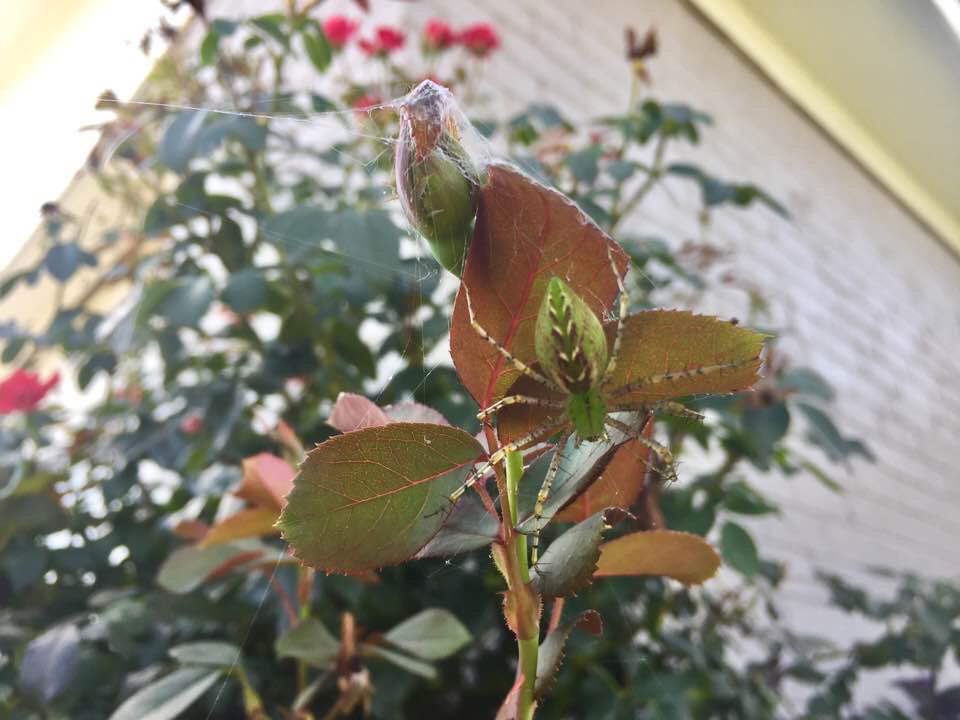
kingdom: Animalia
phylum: Arthropoda
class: Arachnida
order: Araneae
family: Oxyopidae
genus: Peucetia
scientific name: Peucetia viridans
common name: Lynx spiders
